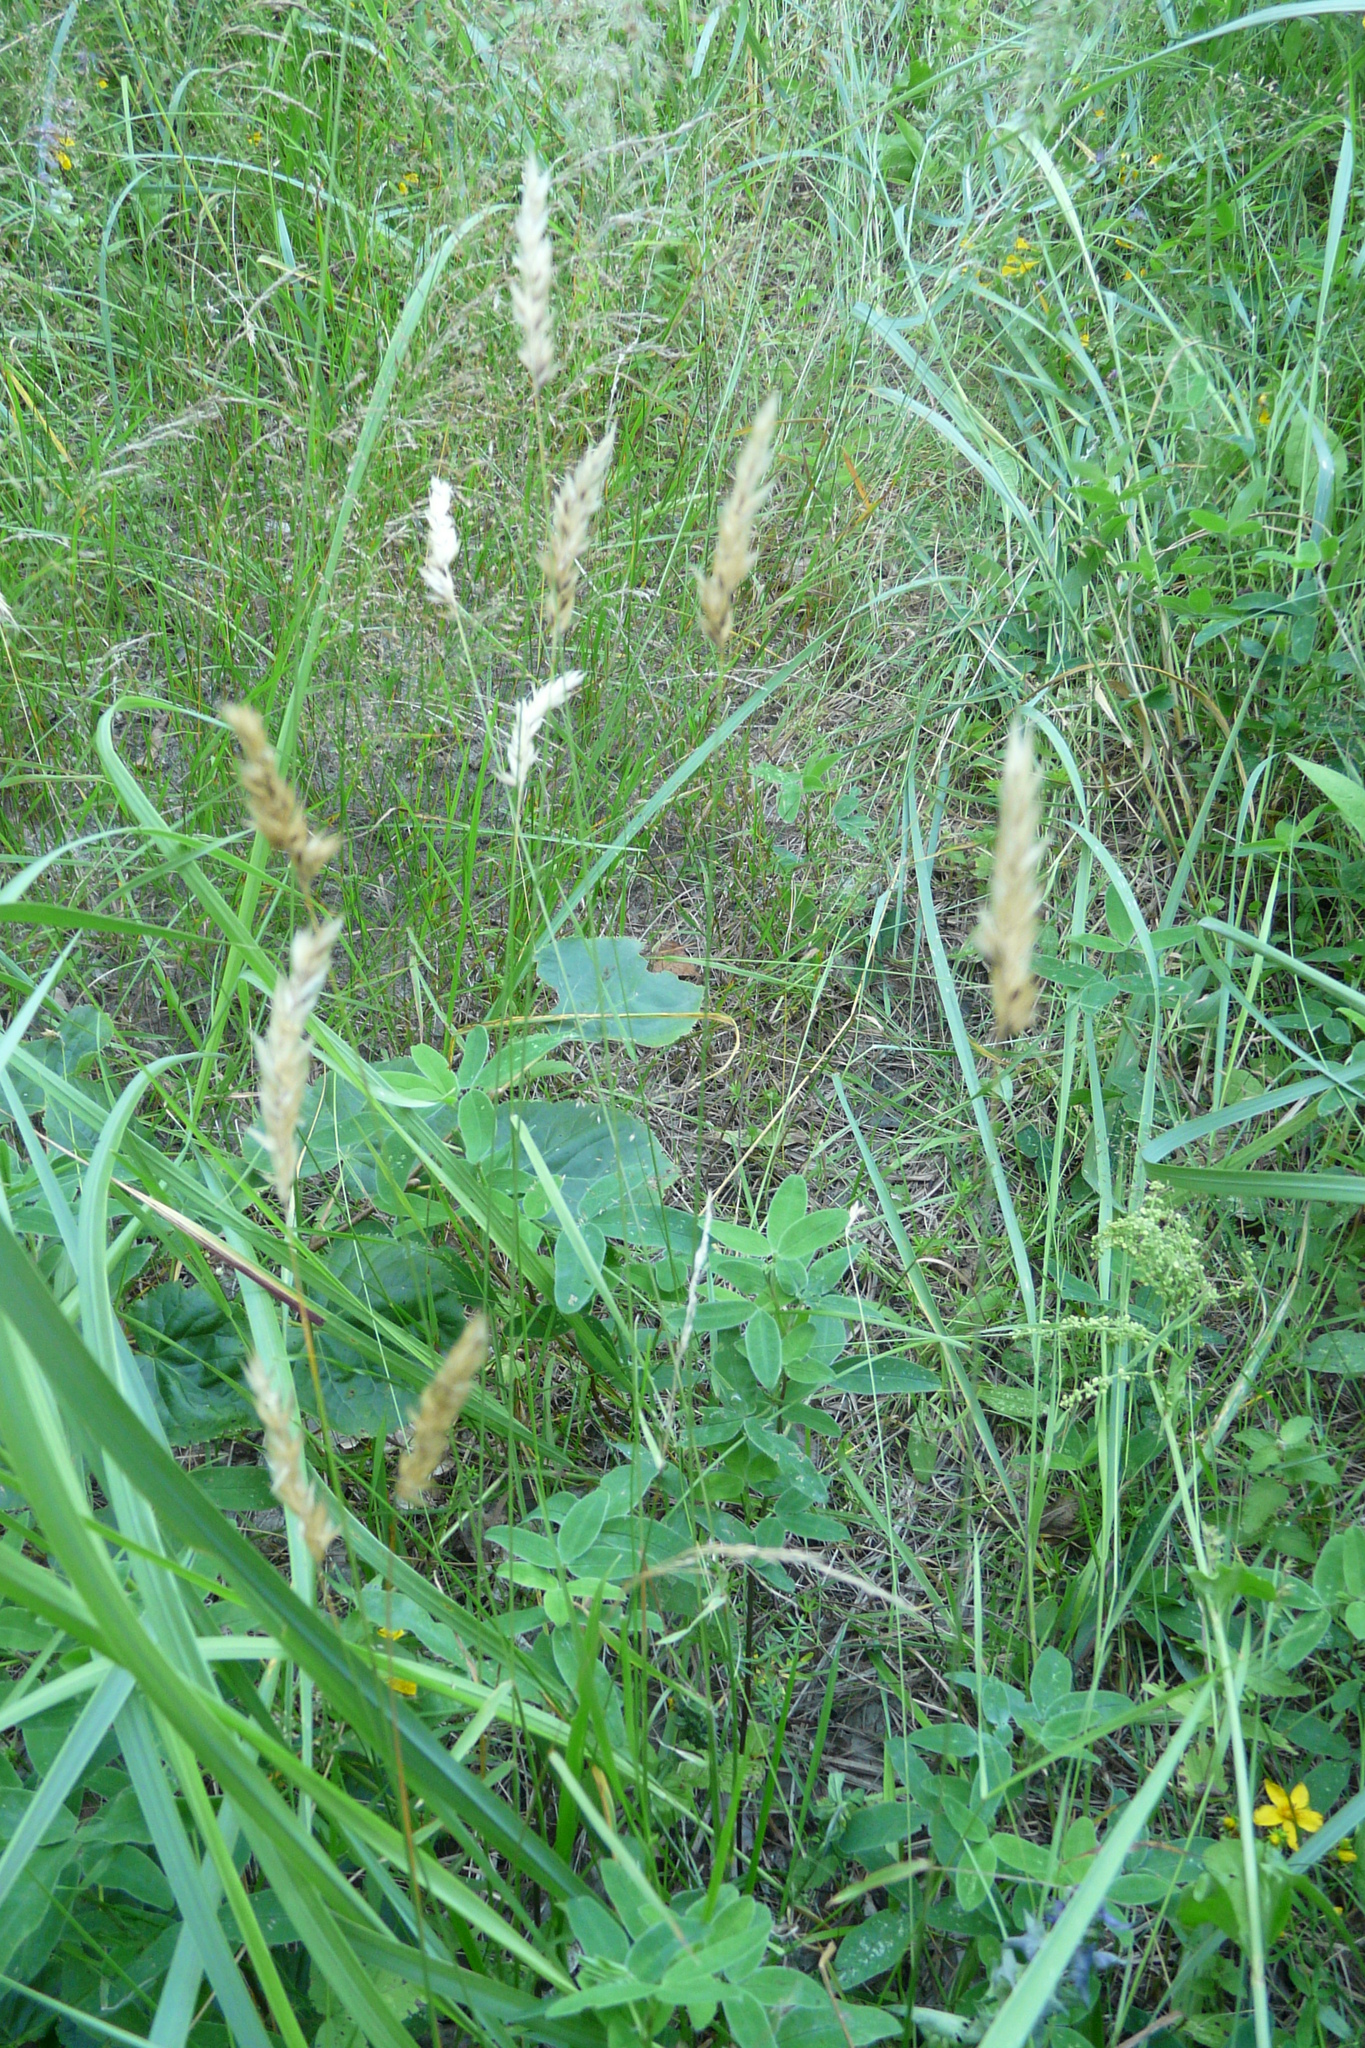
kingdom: Plantae
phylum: Tracheophyta
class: Liliopsida
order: Poales
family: Poaceae
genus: Anthoxanthum
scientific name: Anthoxanthum odoratum
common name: Sweet vernalgrass
